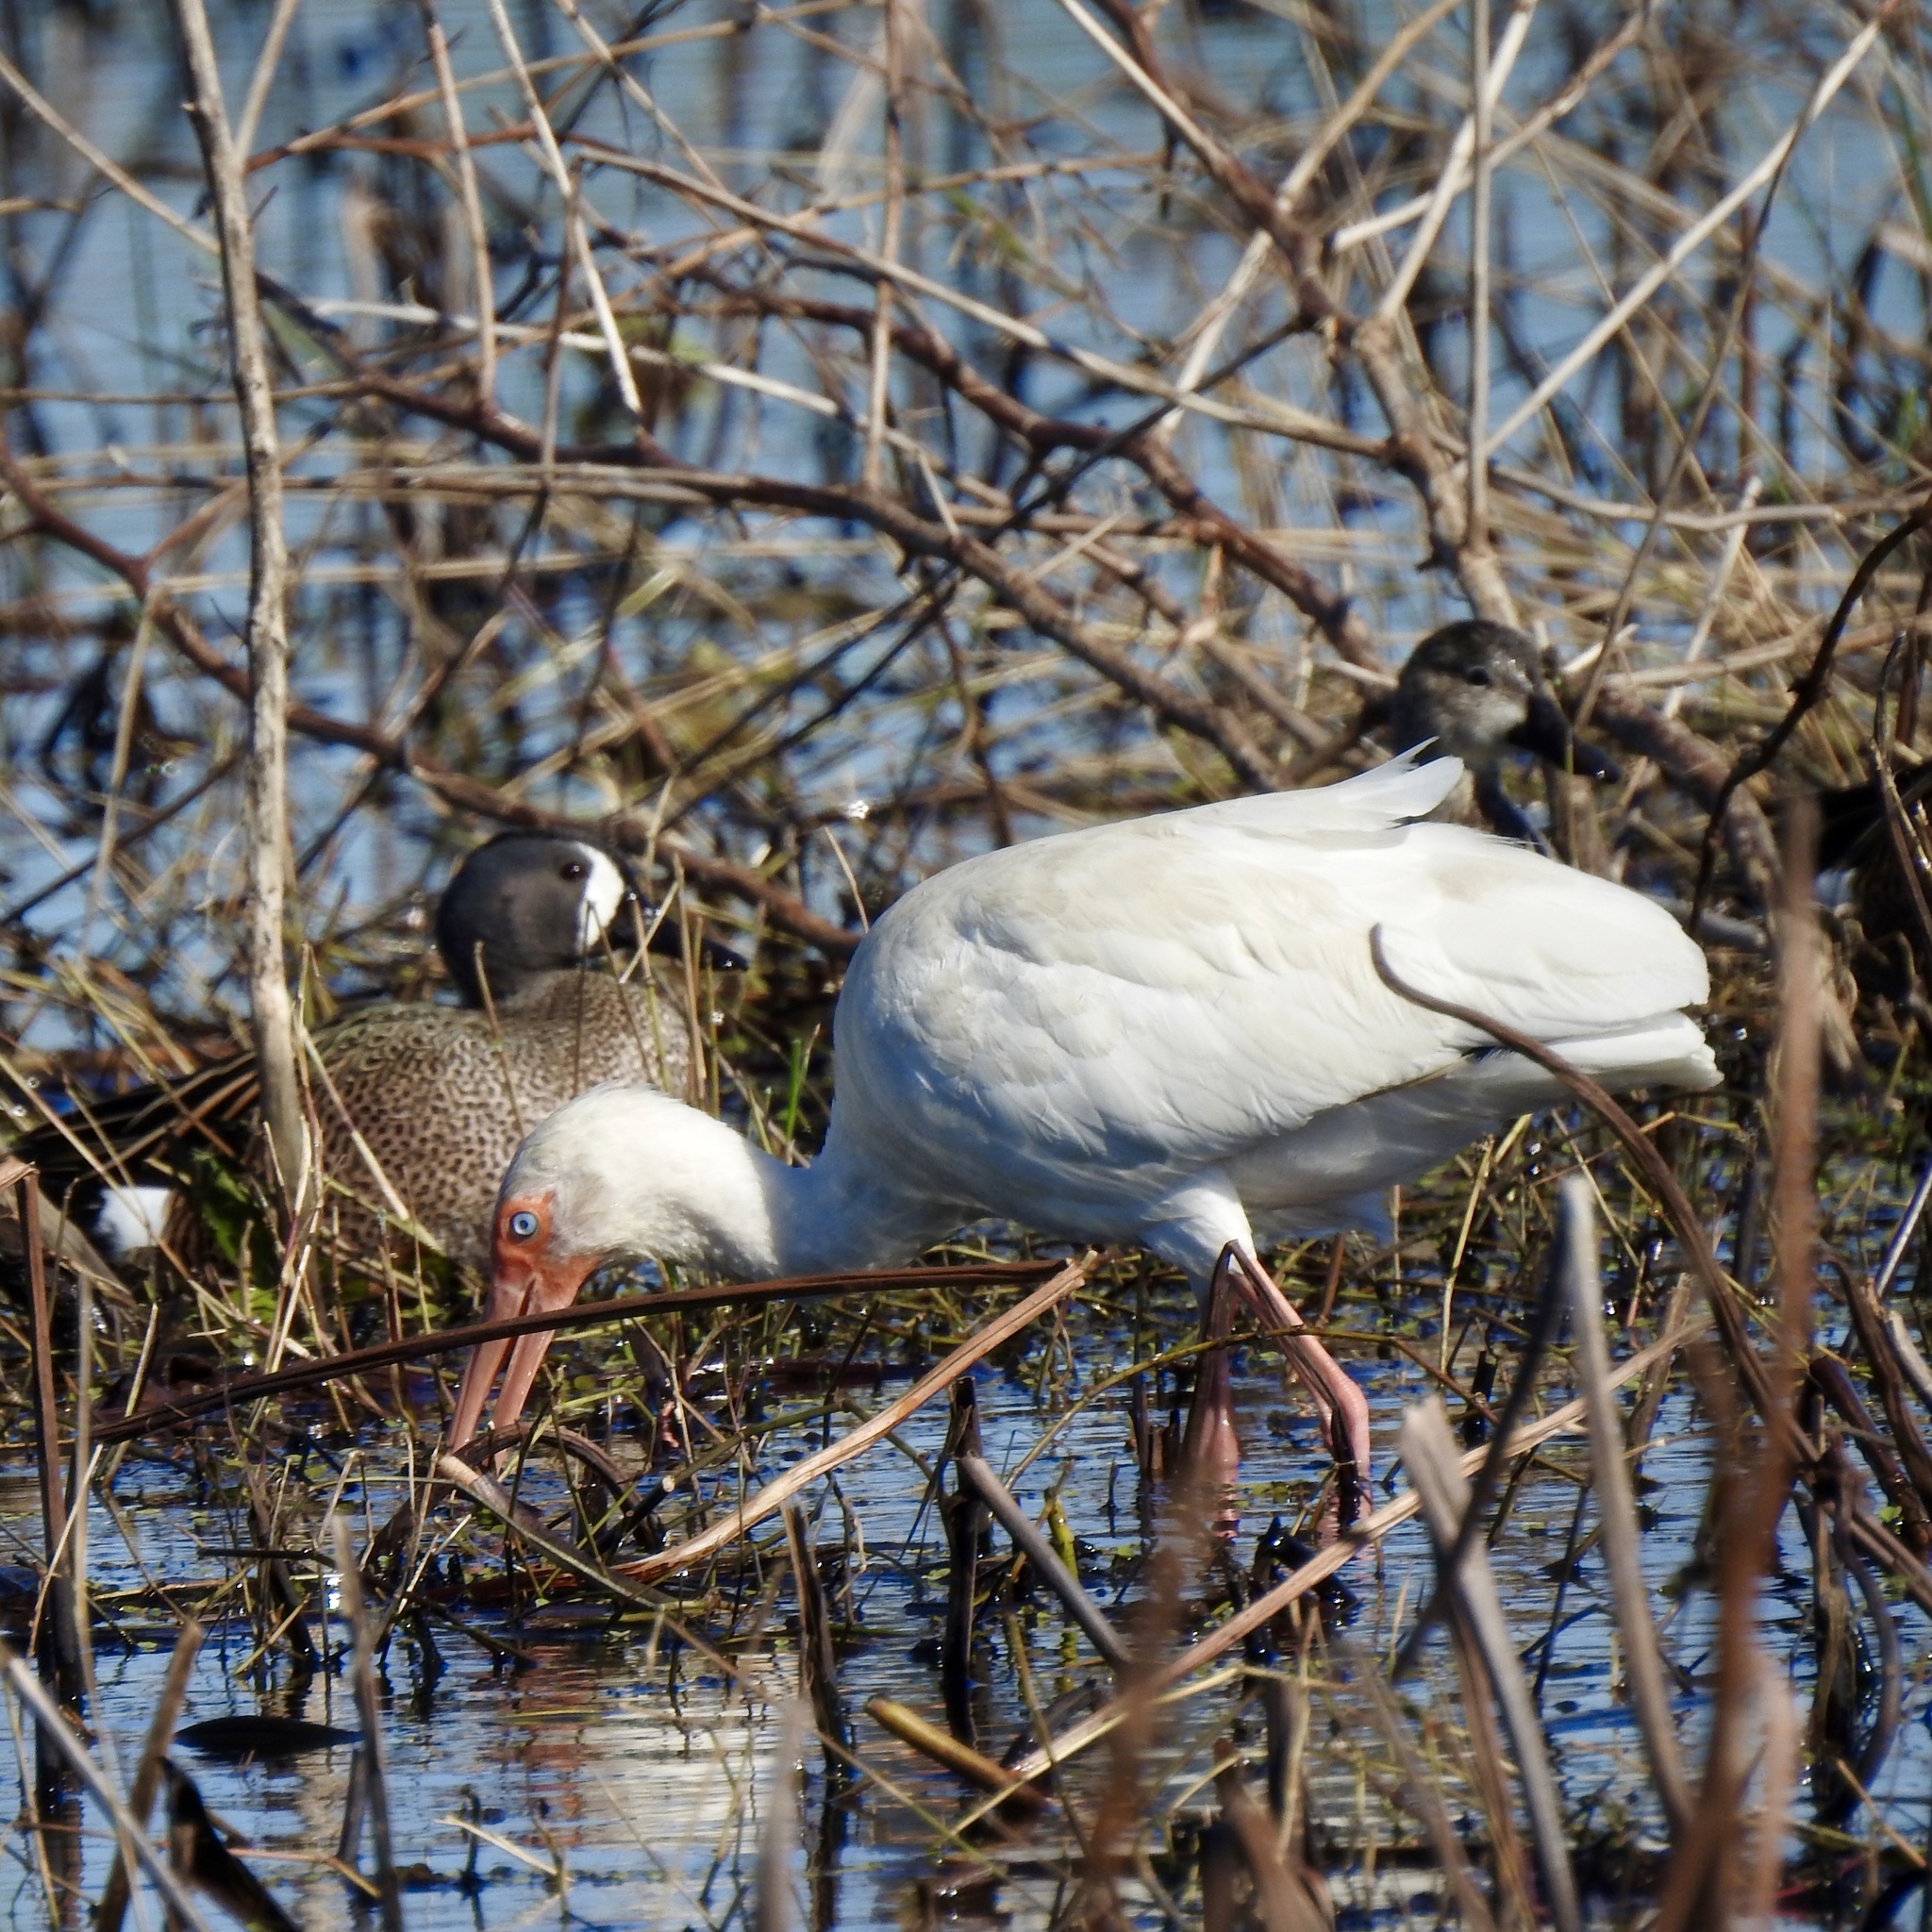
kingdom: Animalia
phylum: Chordata
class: Aves
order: Pelecaniformes
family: Threskiornithidae
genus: Eudocimus
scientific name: Eudocimus albus
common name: White ibis
